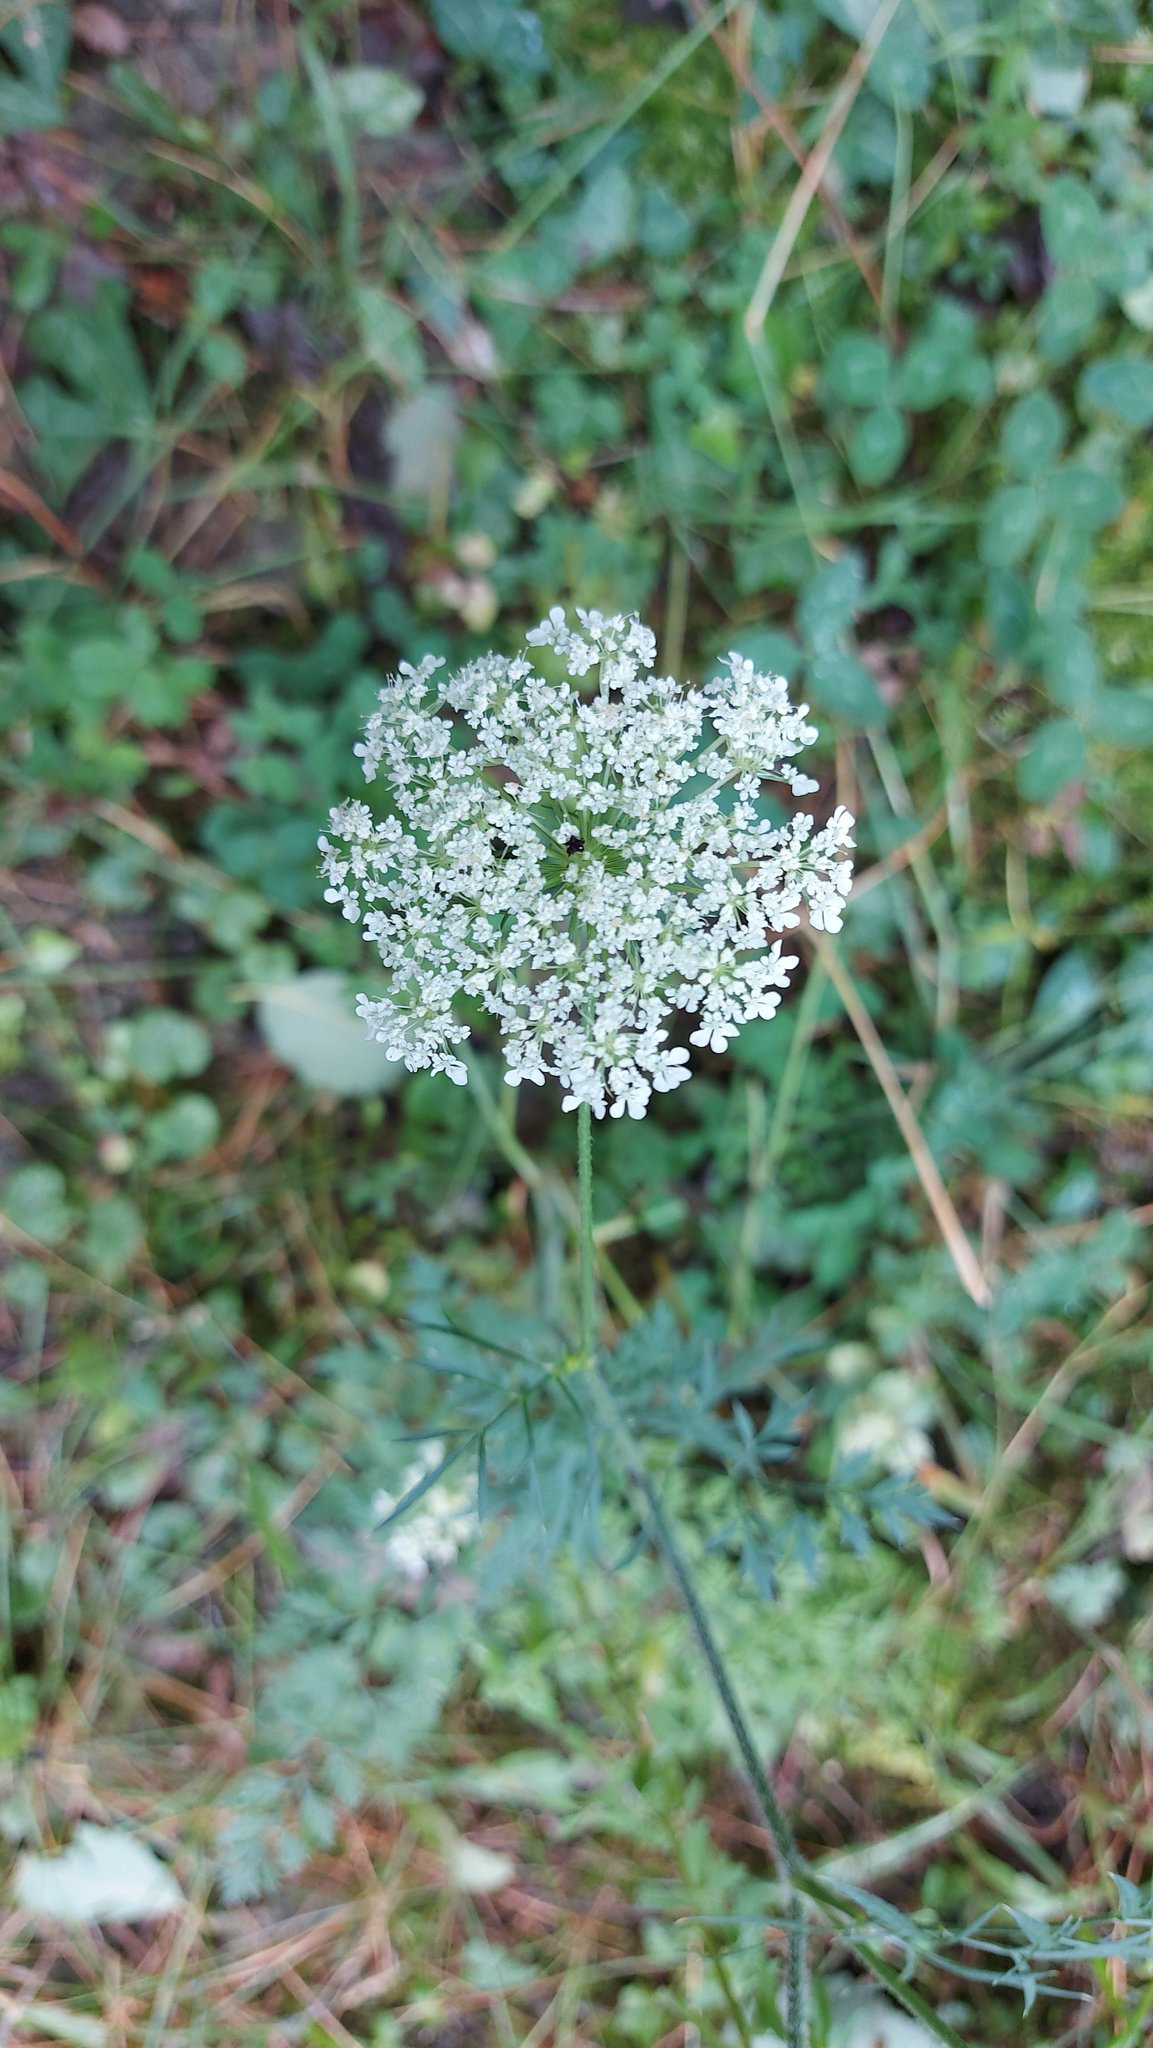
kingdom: Plantae
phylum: Tracheophyta
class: Magnoliopsida
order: Apiales
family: Apiaceae
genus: Daucus
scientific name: Daucus carota
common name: Wild carrot
